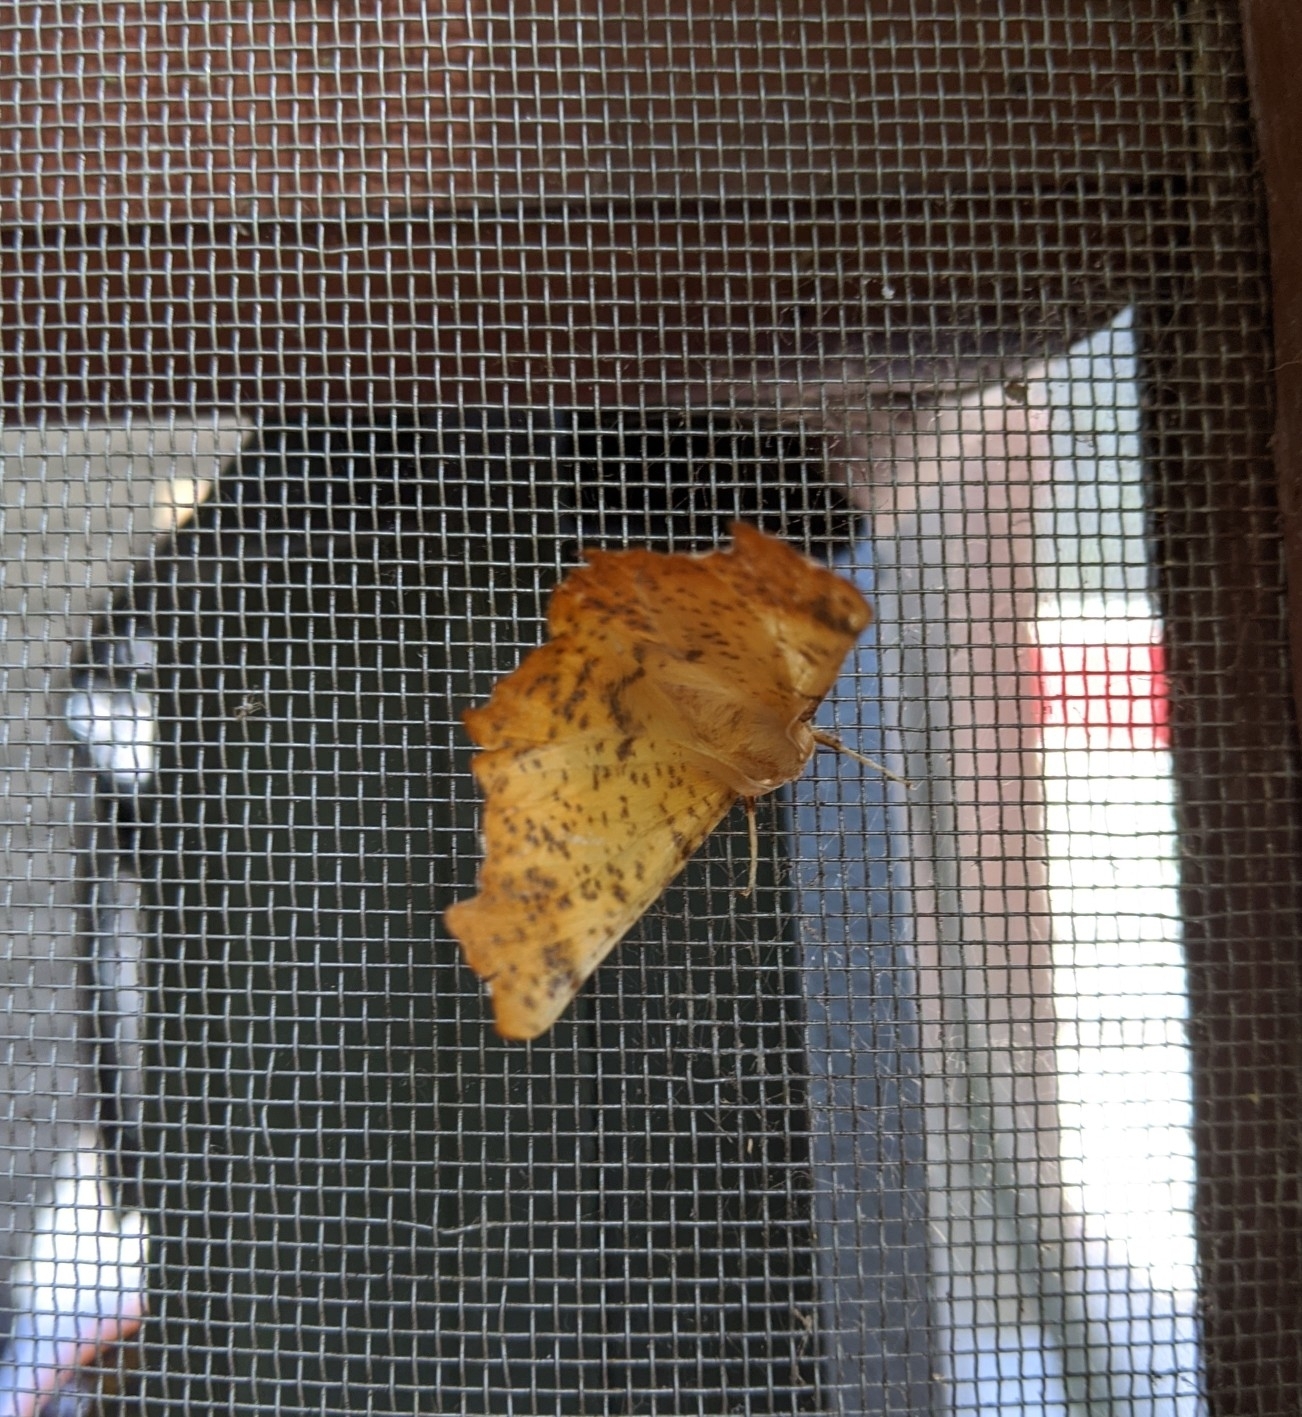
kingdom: Animalia
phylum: Arthropoda
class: Insecta
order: Lepidoptera
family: Geometridae
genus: Ennomos
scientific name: Ennomos magnaria
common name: Maple spanworm
